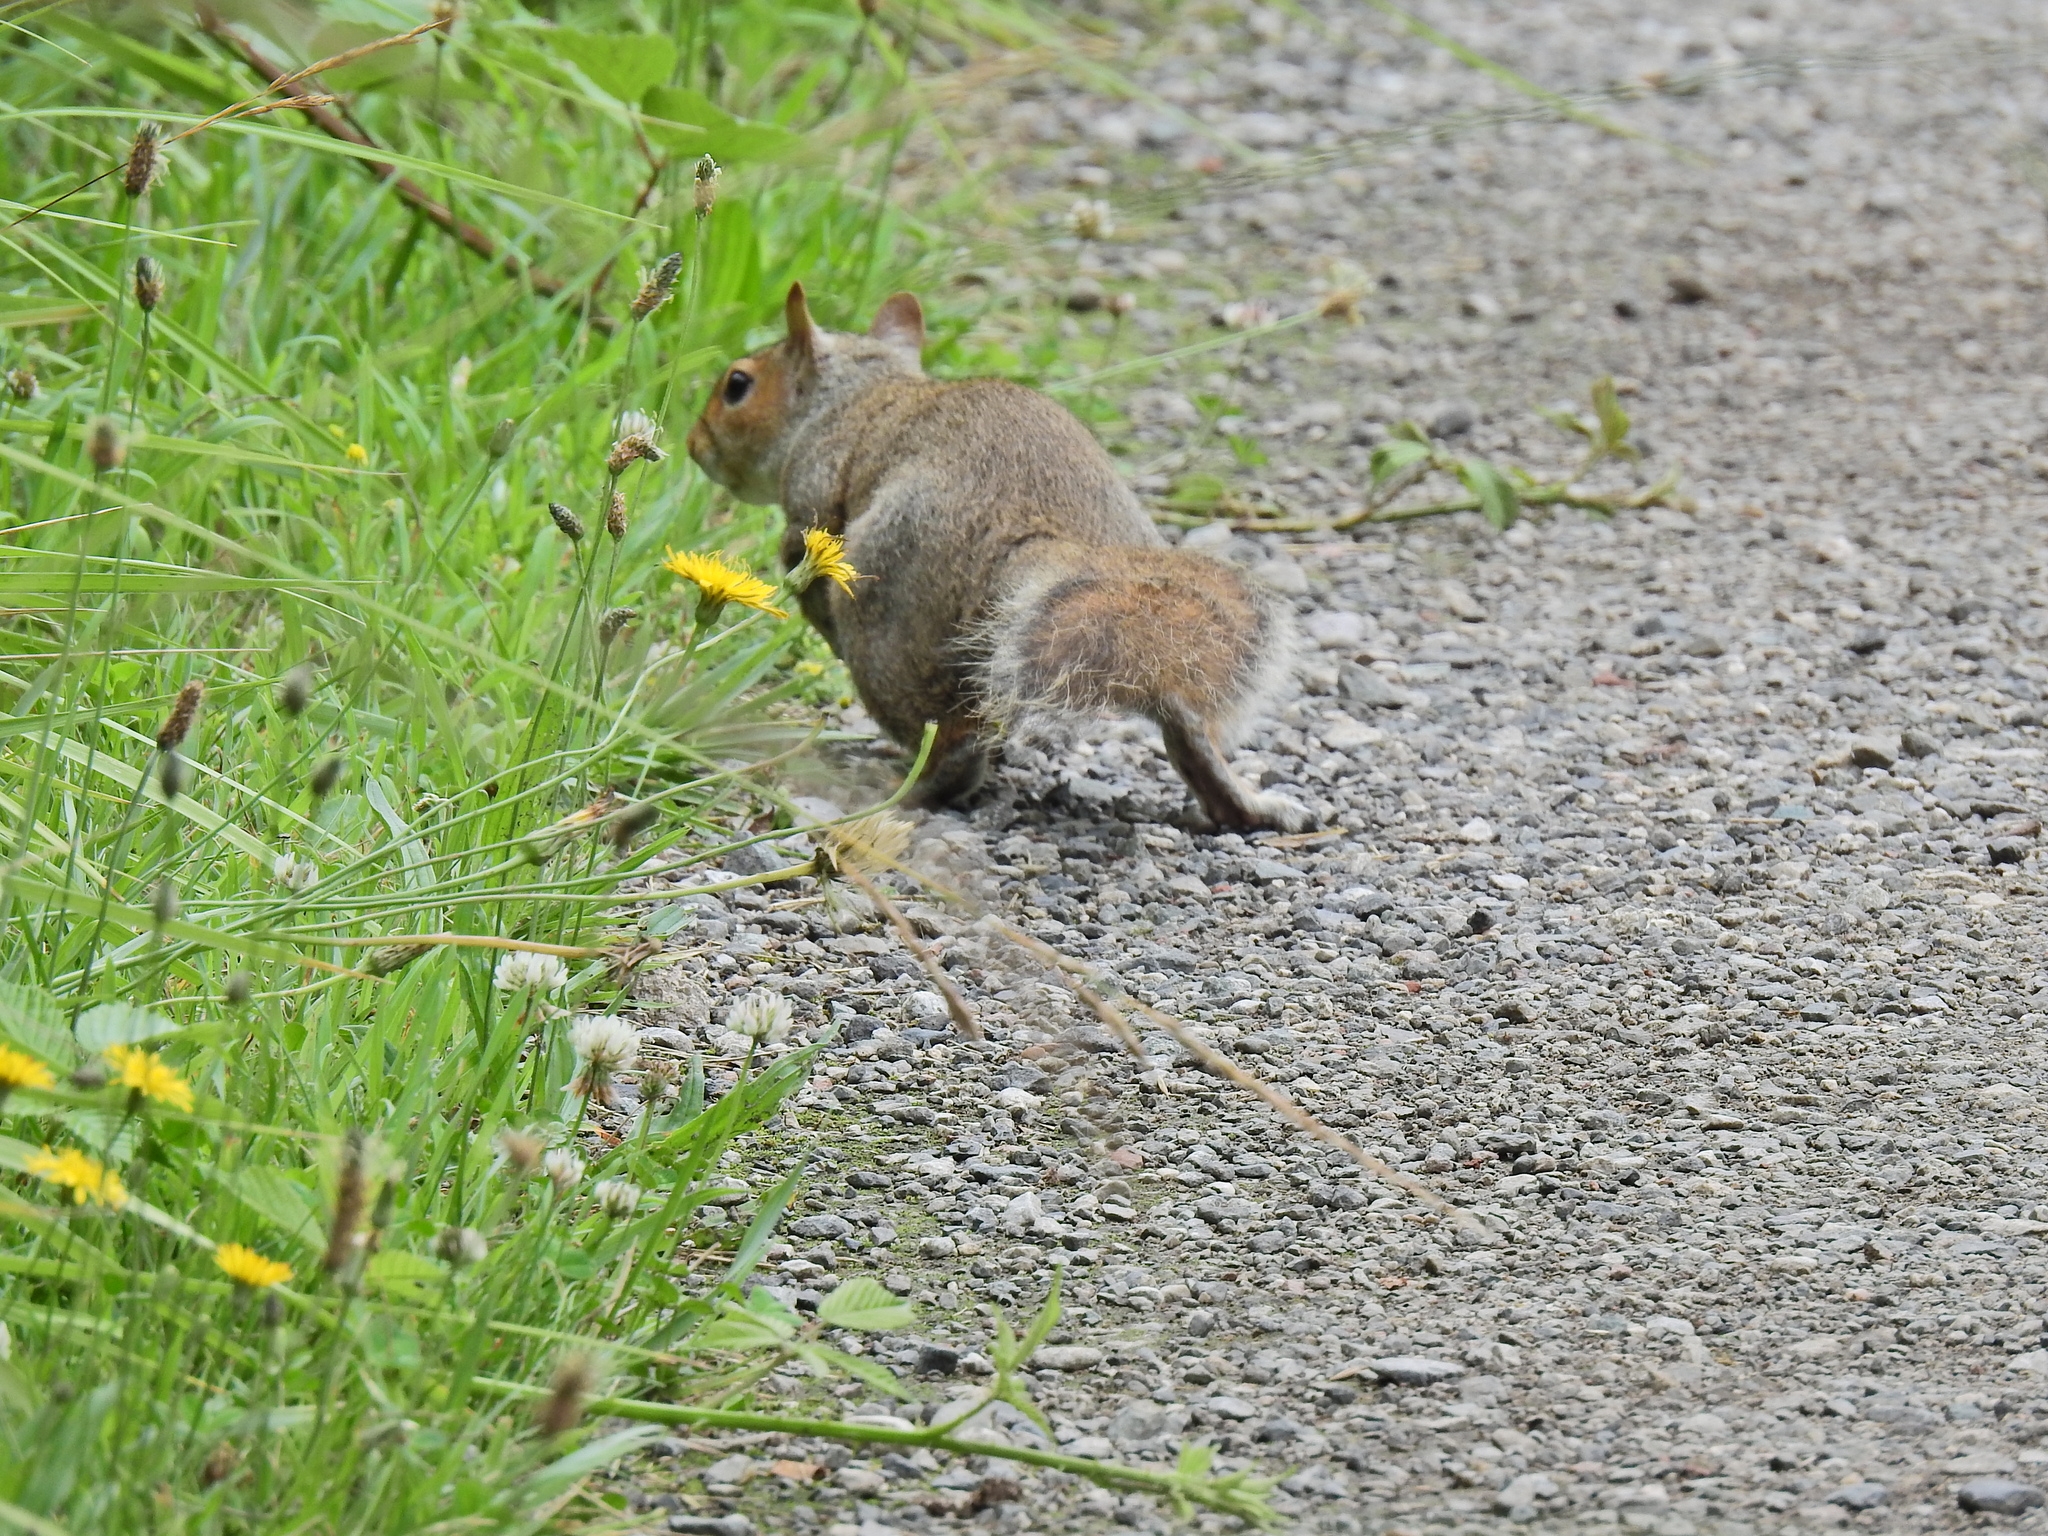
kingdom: Animalia
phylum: Chordata
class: Mammalia
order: Rodentia
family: Sciuridae
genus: Sciurus
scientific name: Sciurus carolinensis
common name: Eastern gray squirrel
